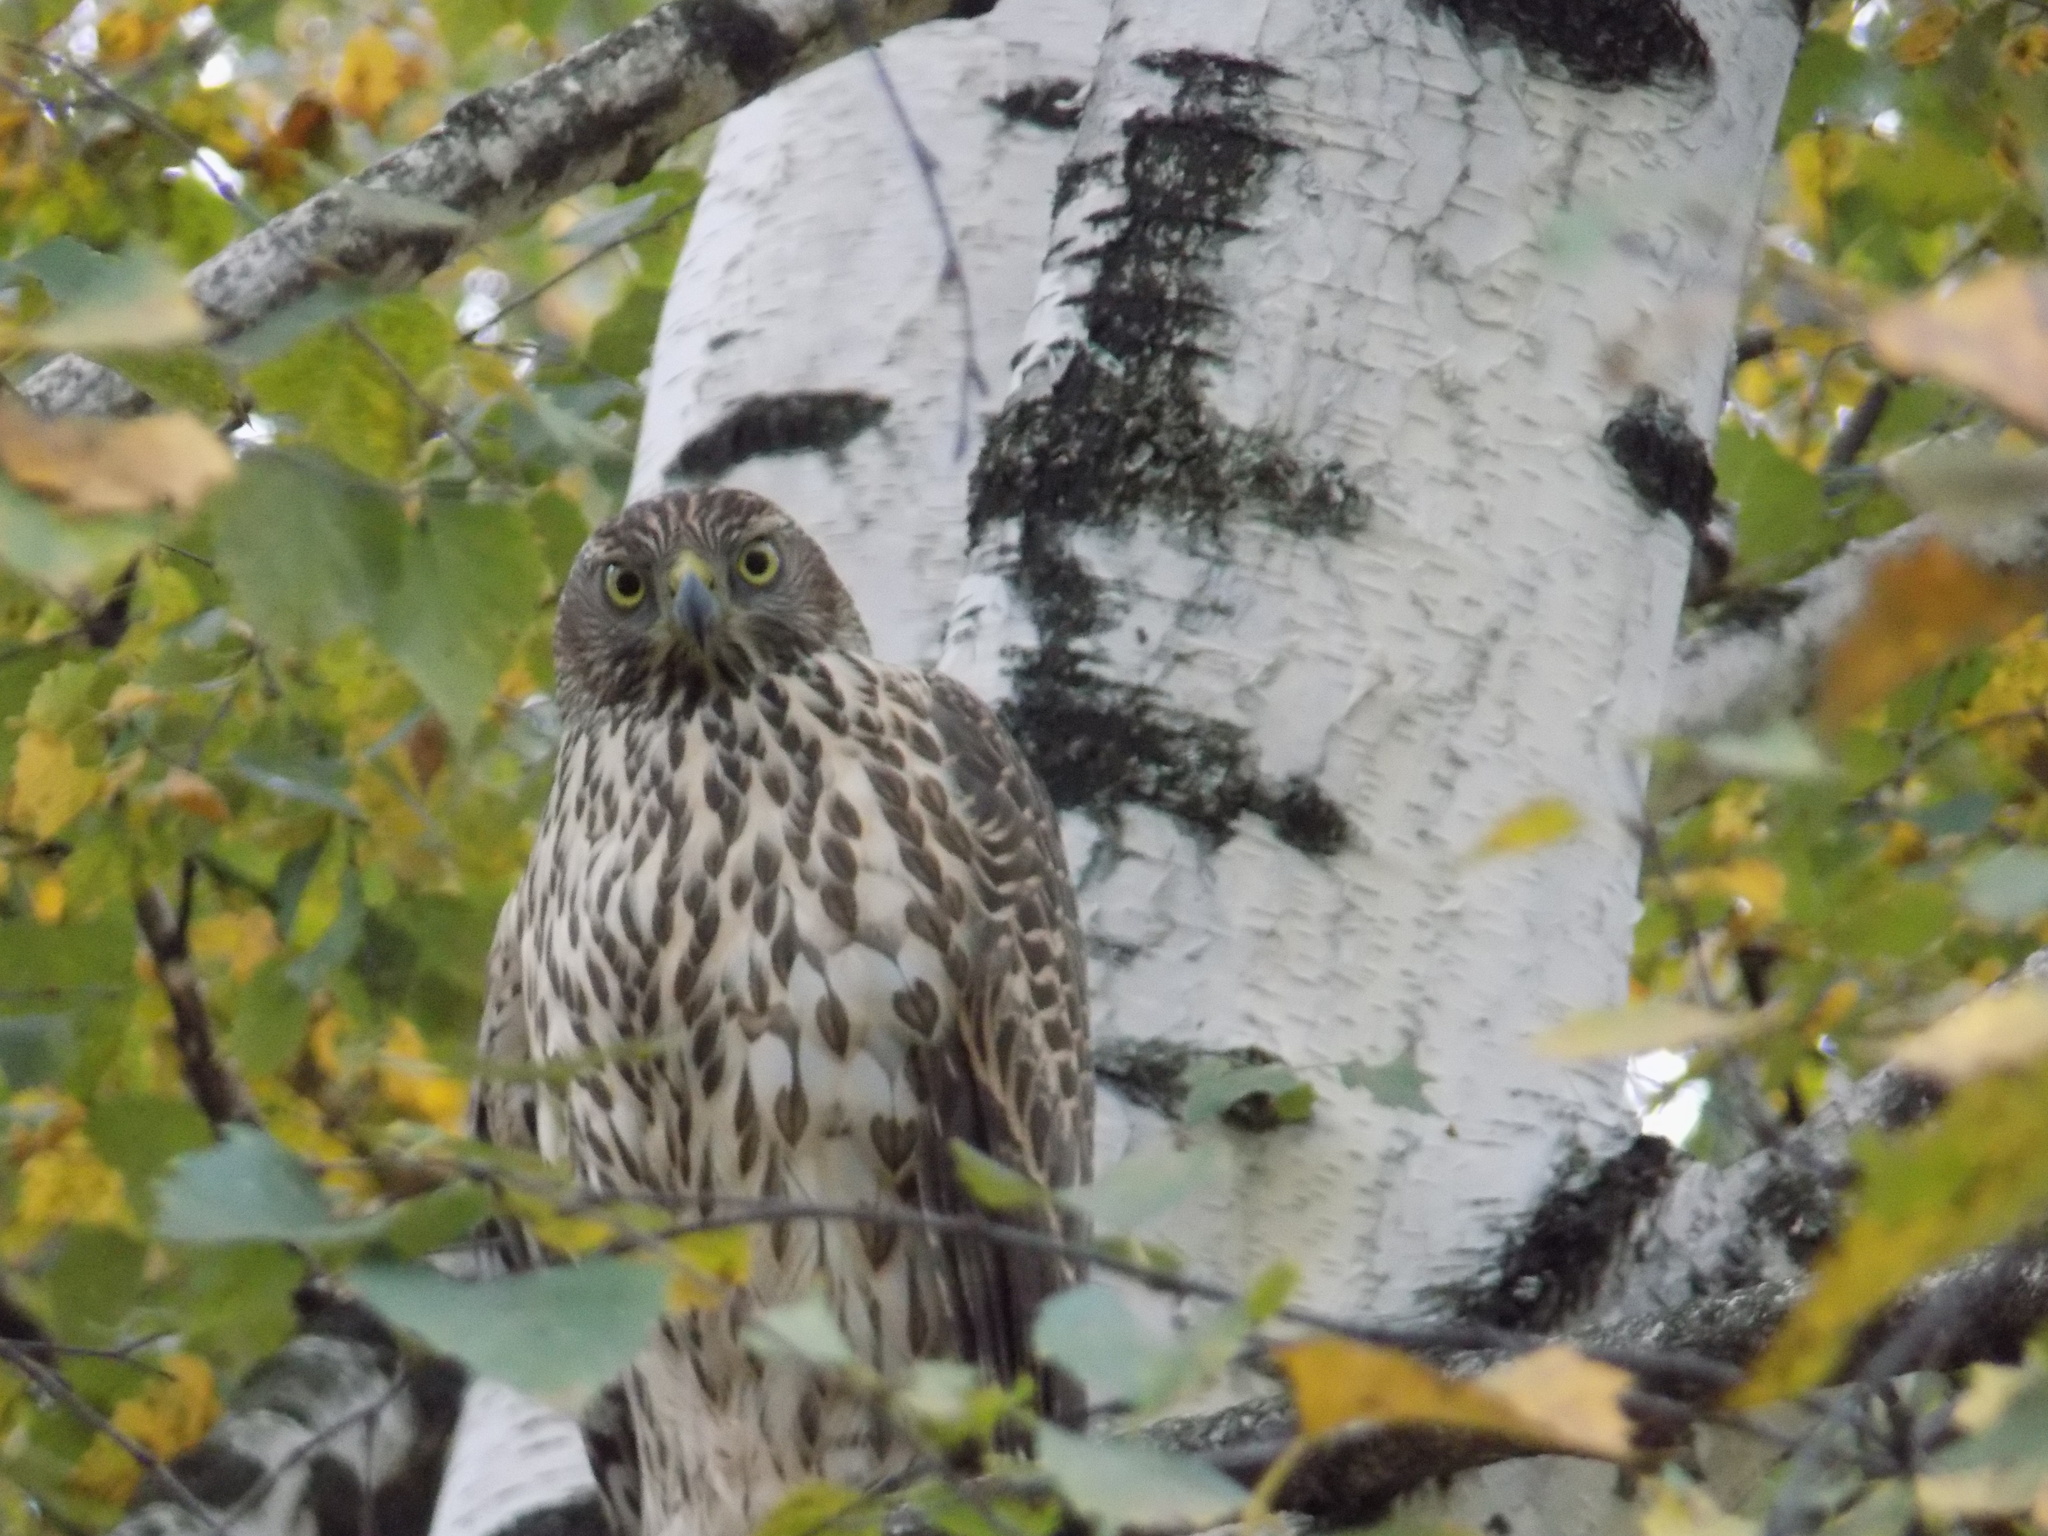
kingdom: Animalia
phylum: Chordata
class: Aves
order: Accipitriformes
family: Accipitridae
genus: Accipiter
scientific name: Accipiter gentilis
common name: Northern goshawk
